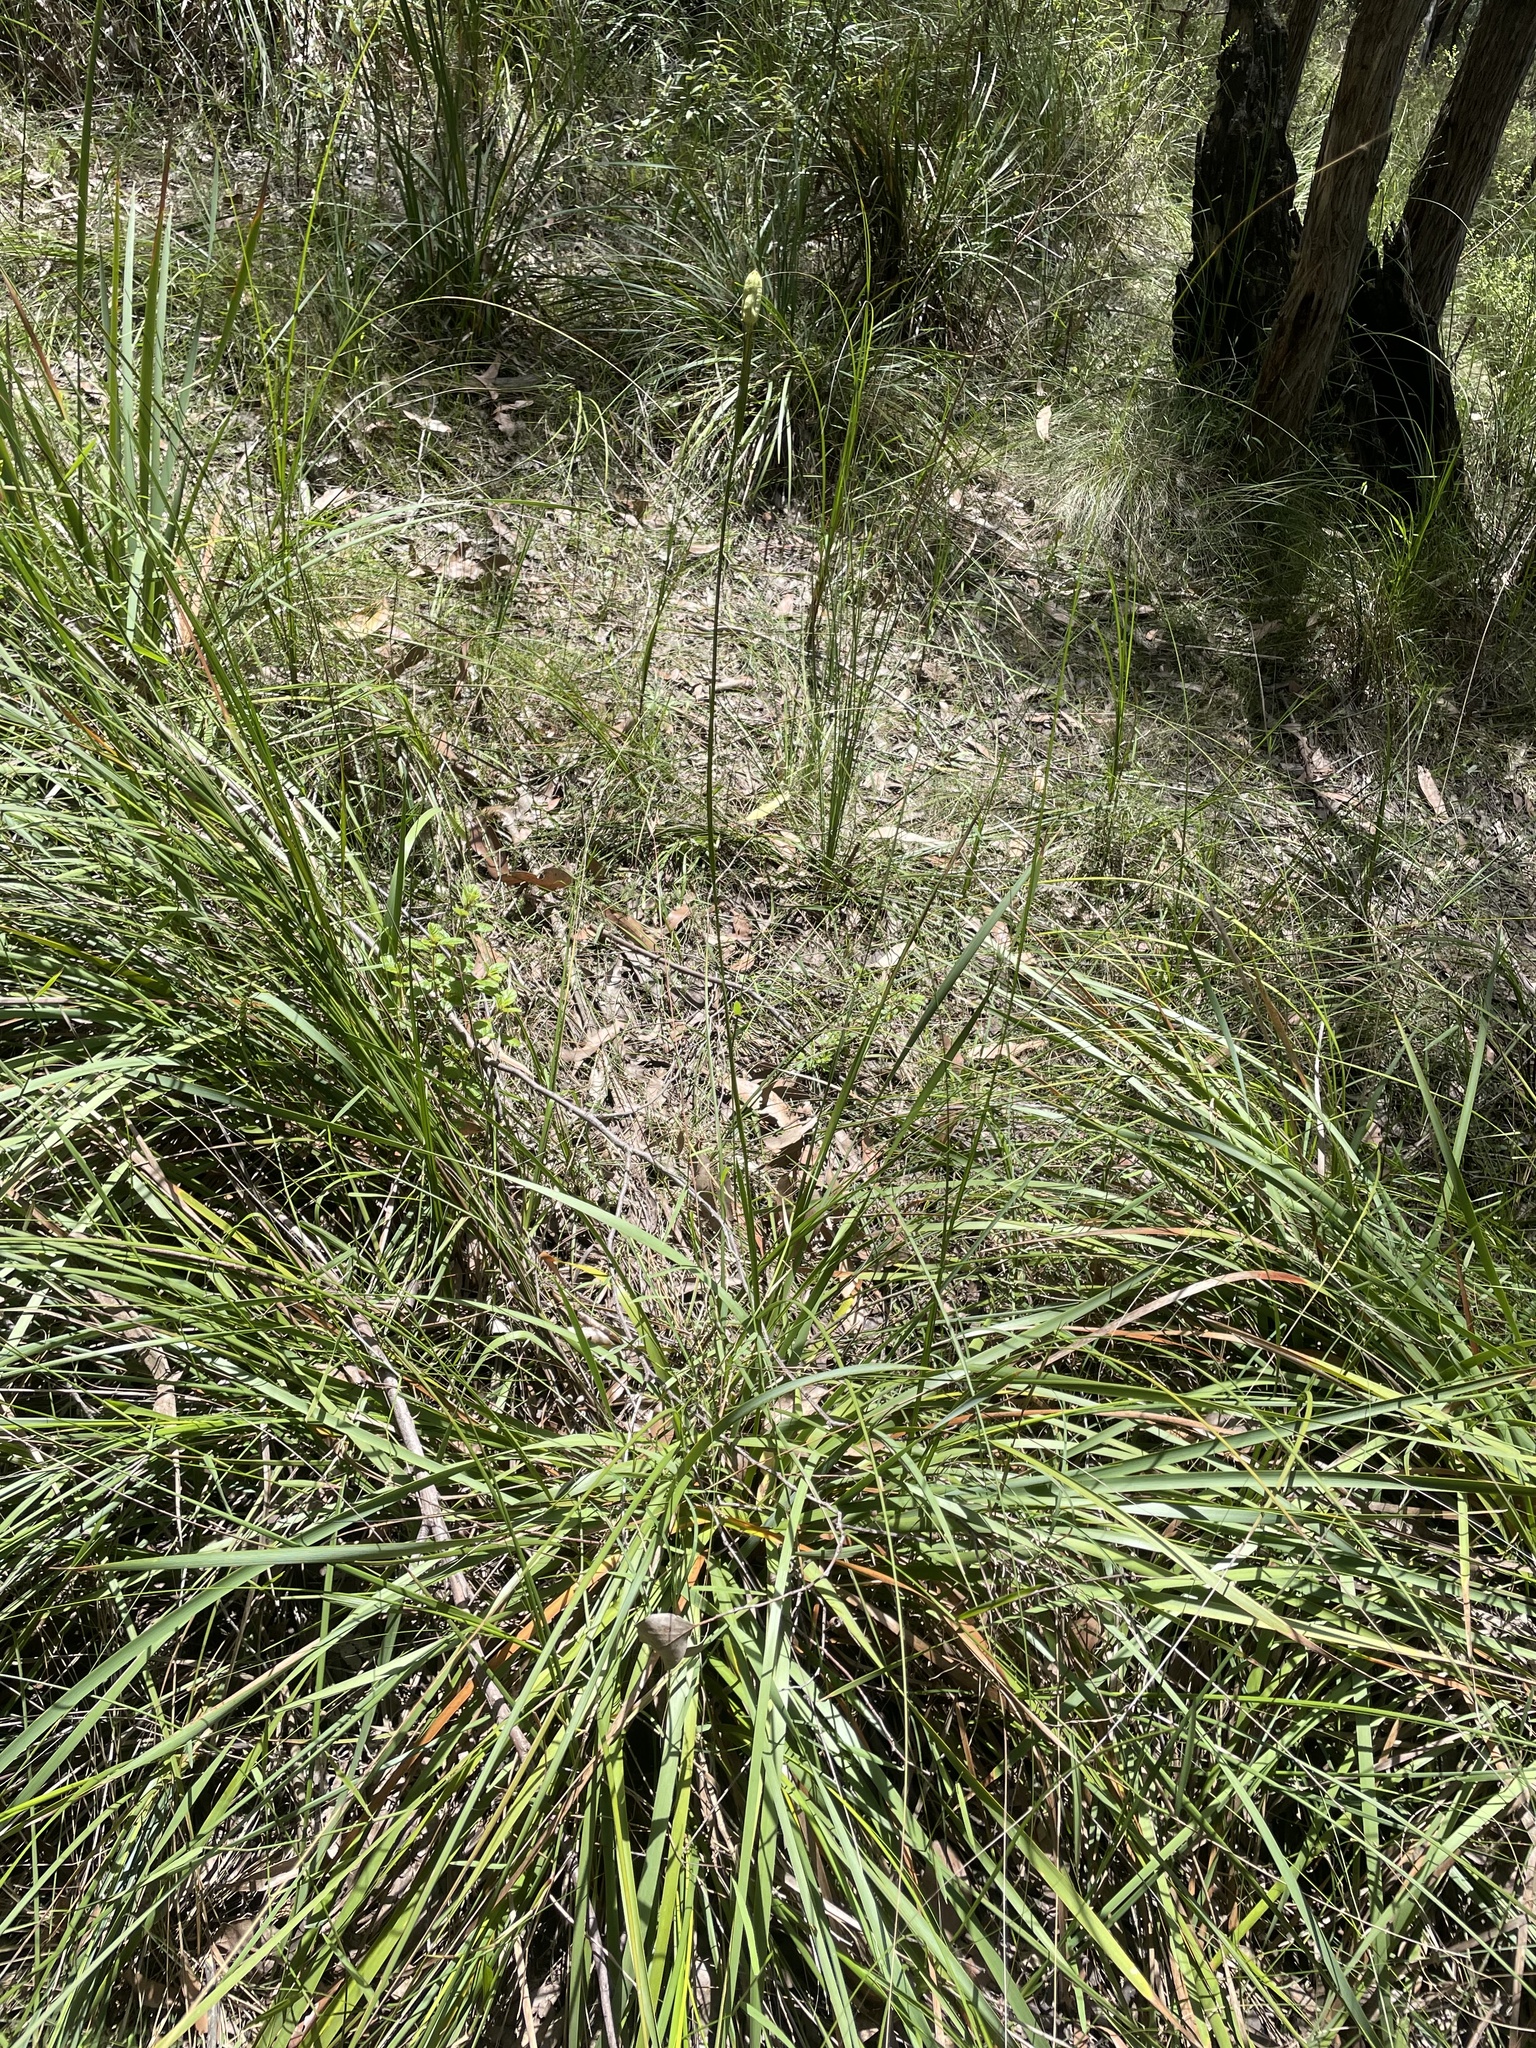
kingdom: Plantae
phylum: Tracheophyta
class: Liliopsida
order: Asparagales
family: Iridaceae
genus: Diplarrena
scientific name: Diplarrena moraea
